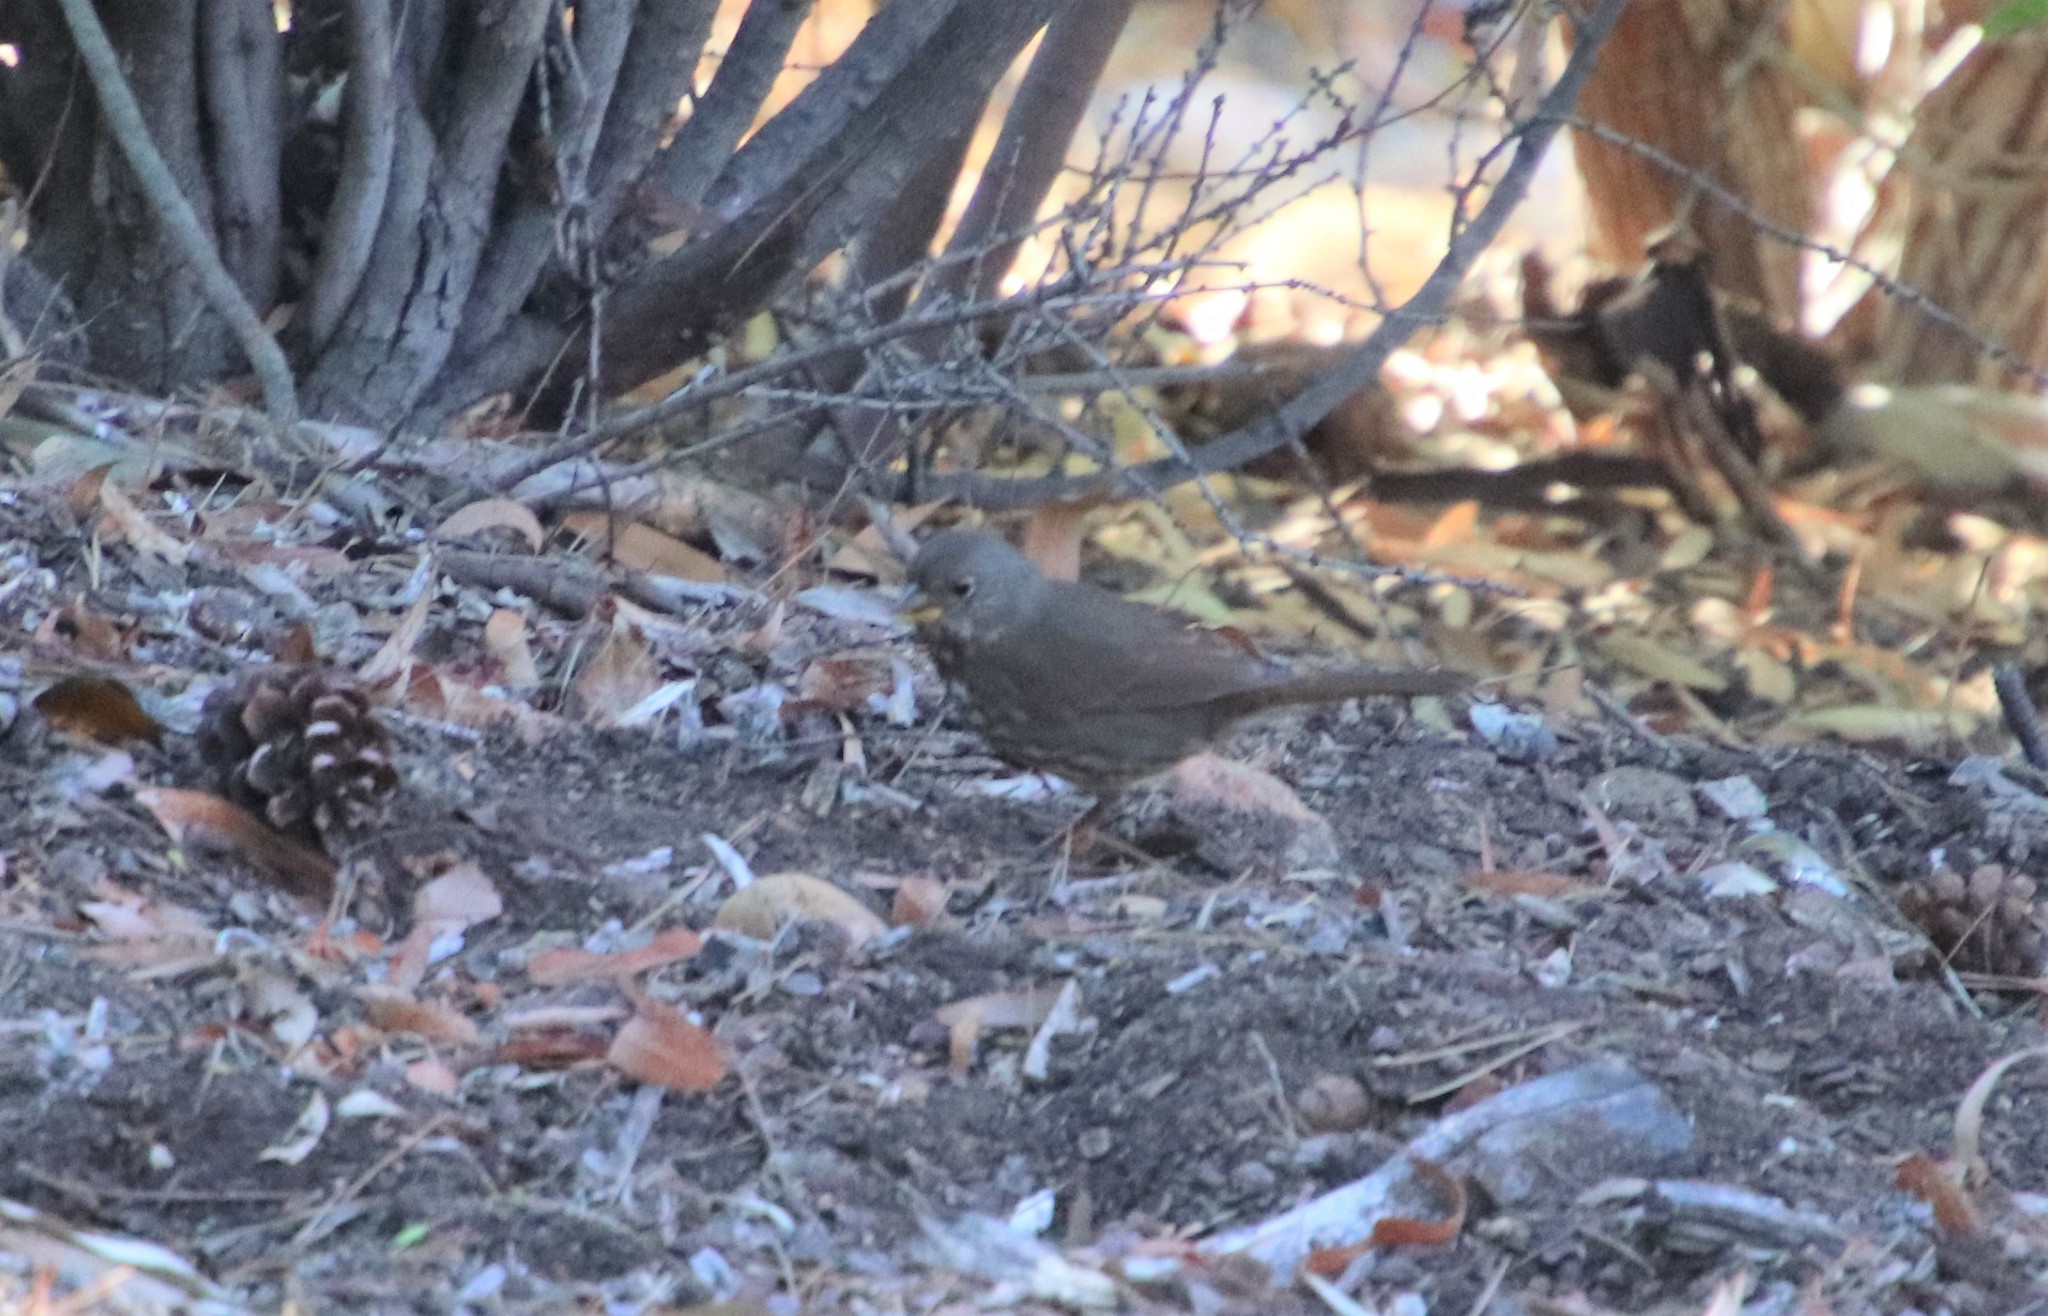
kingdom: Animalia
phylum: Chordata
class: Aves
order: Passeriformes
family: Passerellidae
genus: Passerella
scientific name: Passerella iliaca
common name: Fox sparrow
